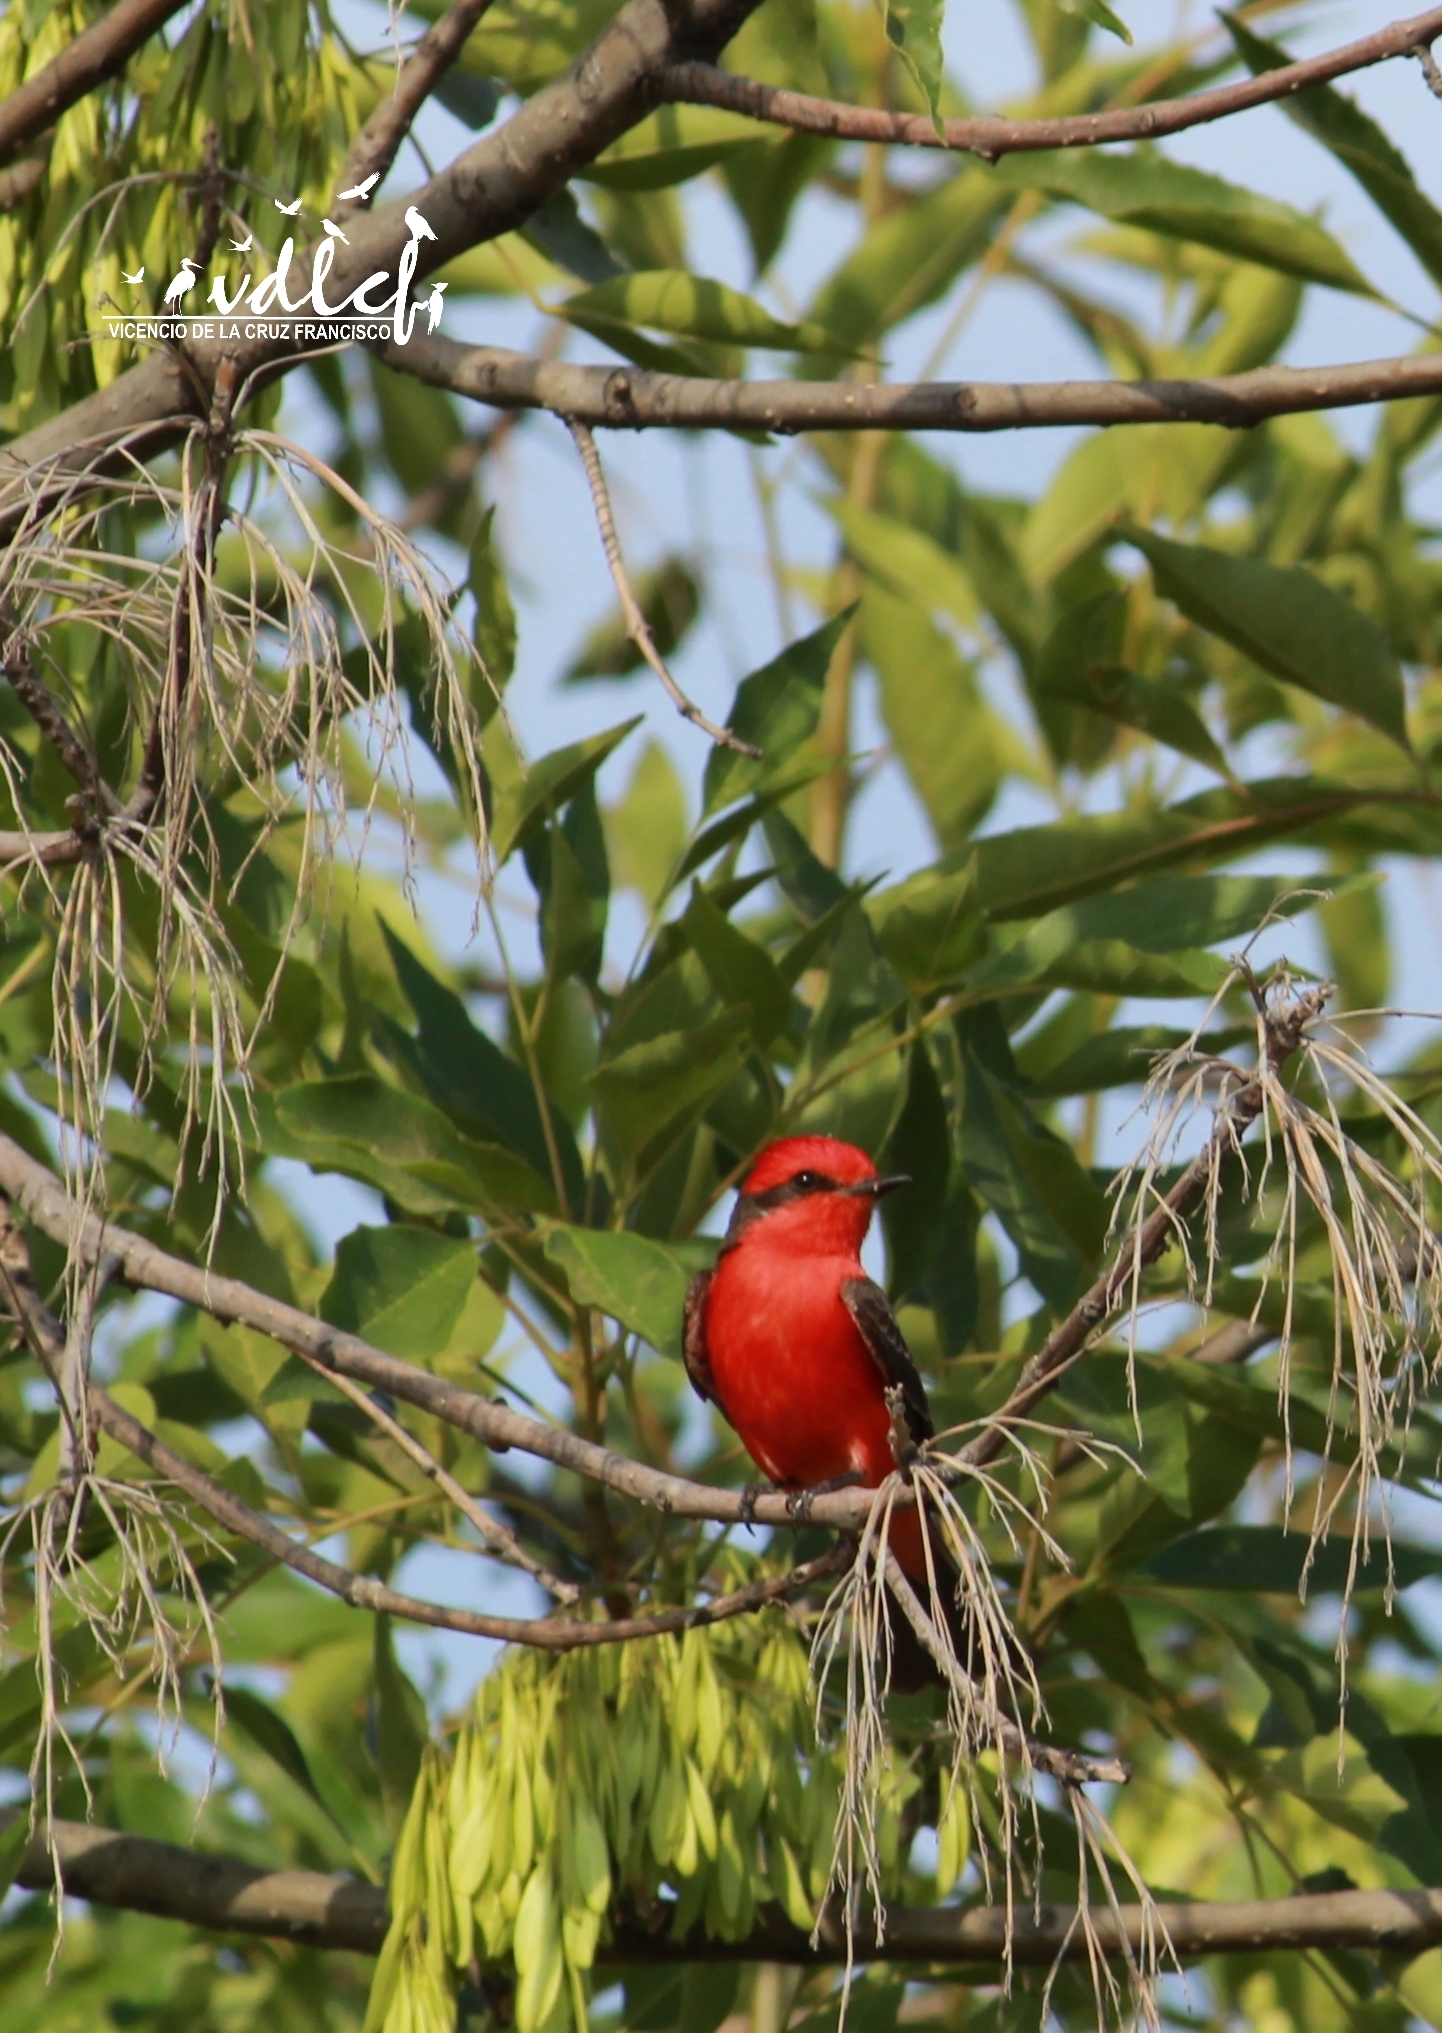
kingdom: Animalia
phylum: Chordata
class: Aves
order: Passeriformes
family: Tyrannidae
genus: Pyrocephalus
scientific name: Pyrocephalus rubinus
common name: Vermilion flycatcher
